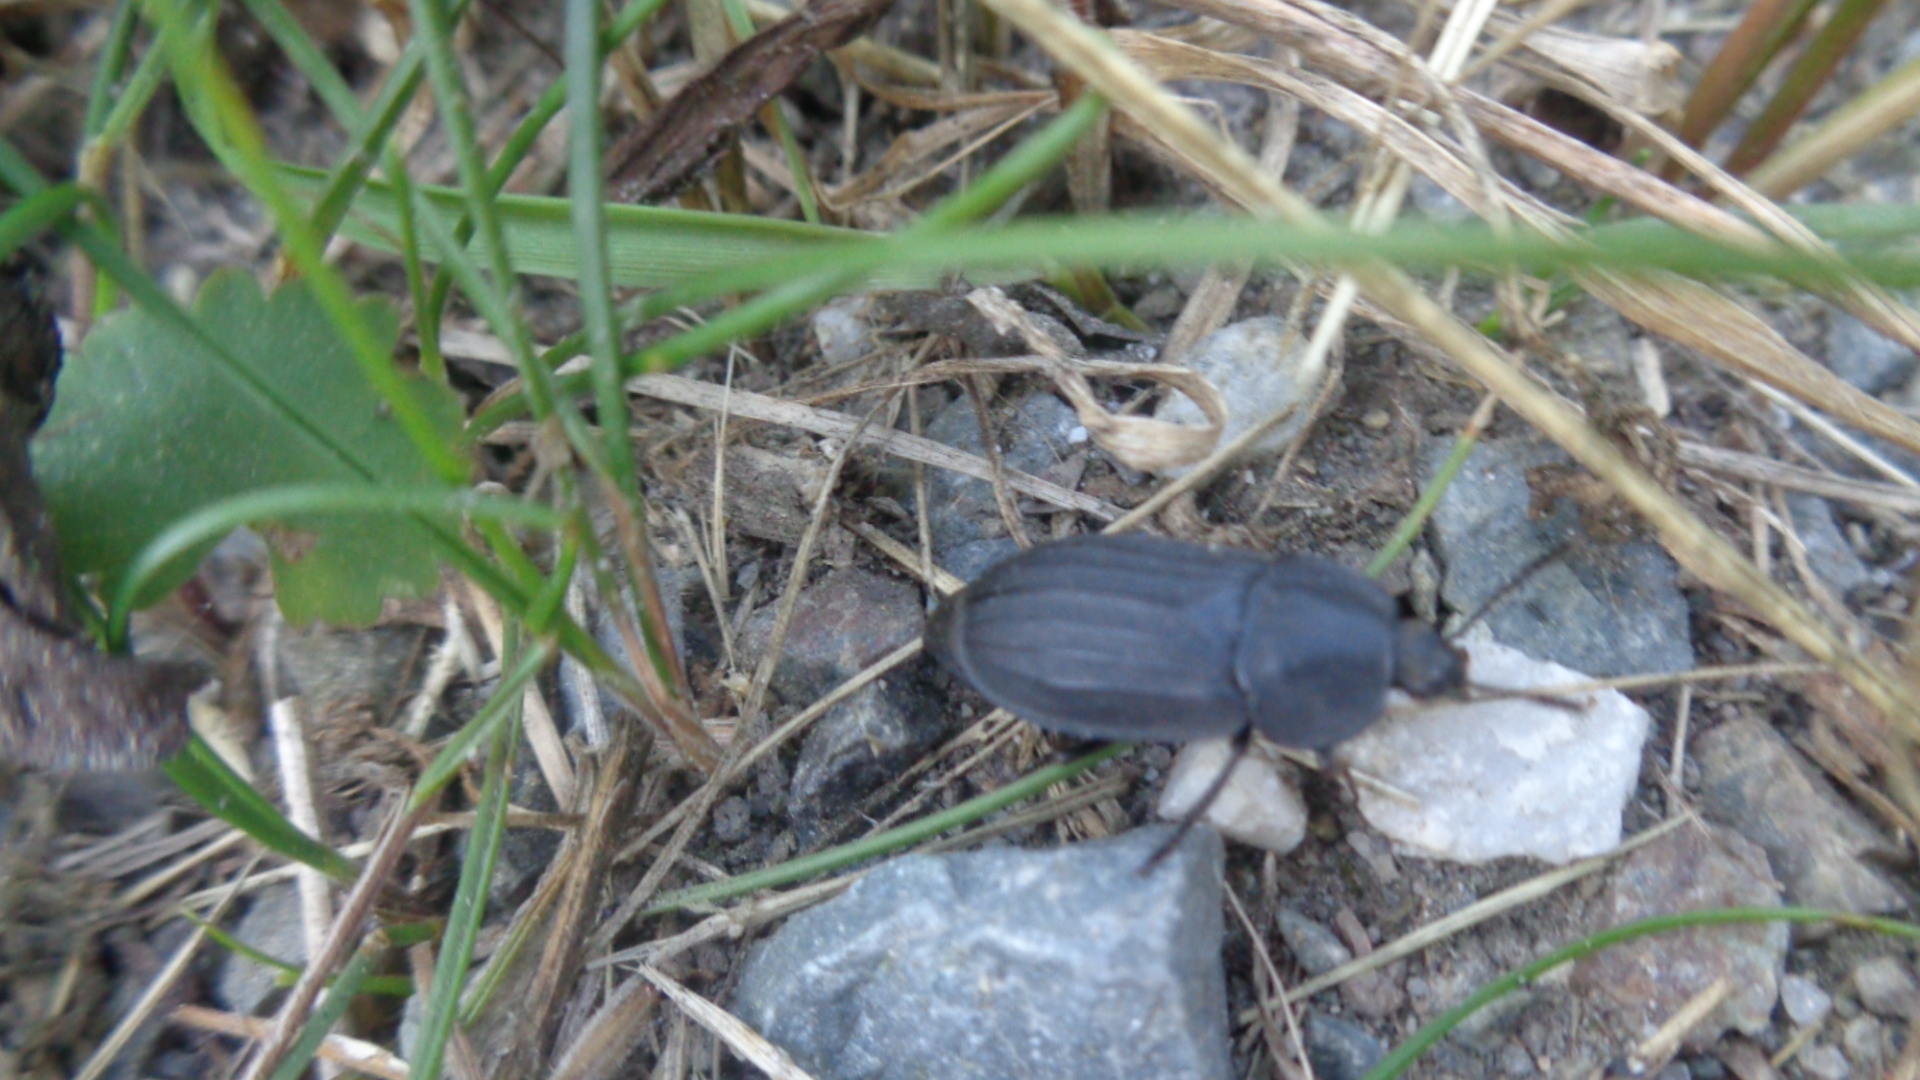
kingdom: Animalia
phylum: Arthropoda
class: Insecta
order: Coleoptera
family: Staphylinidae
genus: Silpha
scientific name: Silpha tristis
